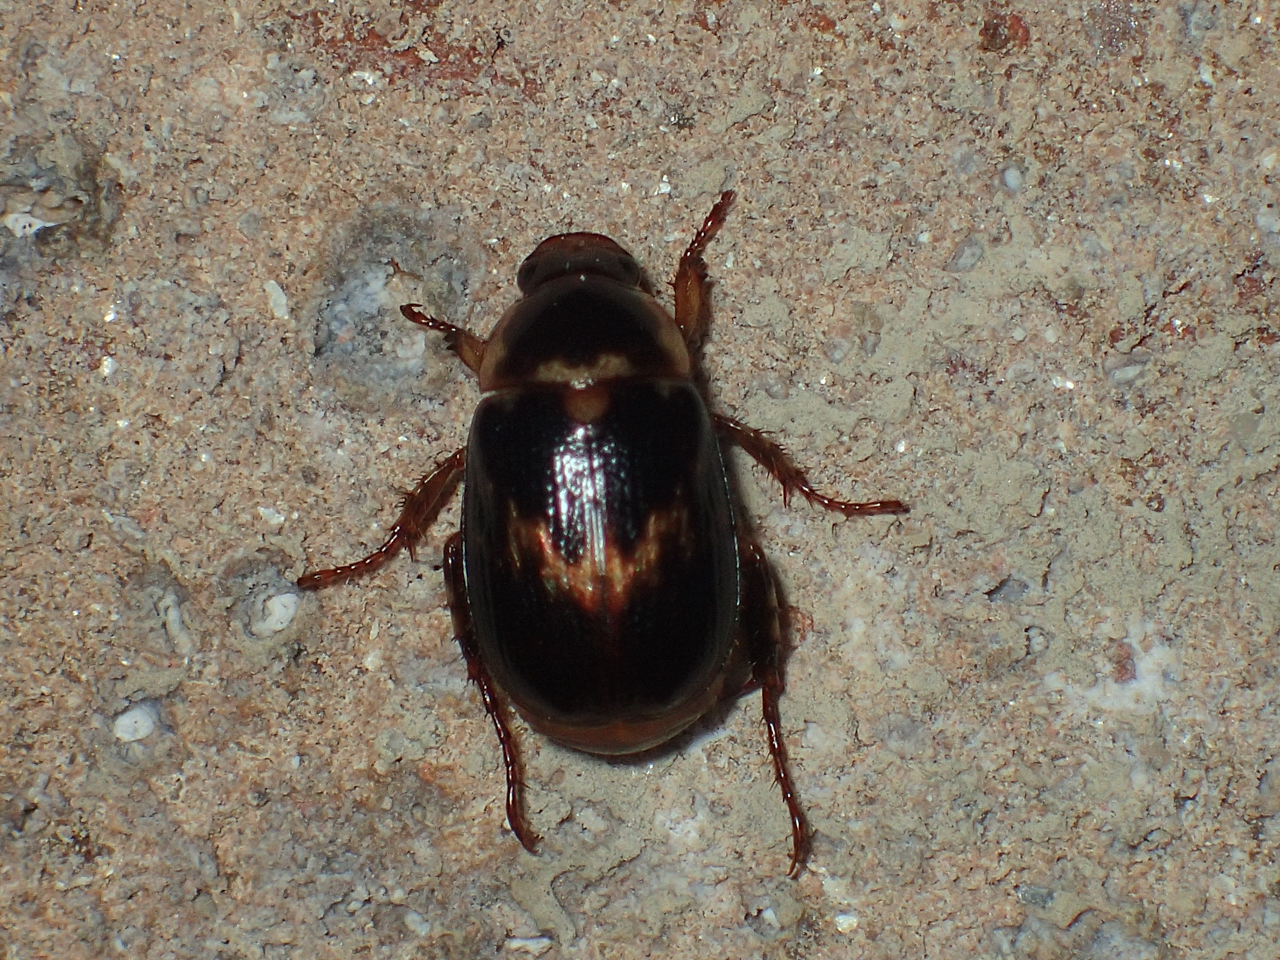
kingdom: Animalia
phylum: Arthropoda
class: Insecta
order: Coleoptera
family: Scarabaeidae
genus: Anomala
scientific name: Anomala innuba
